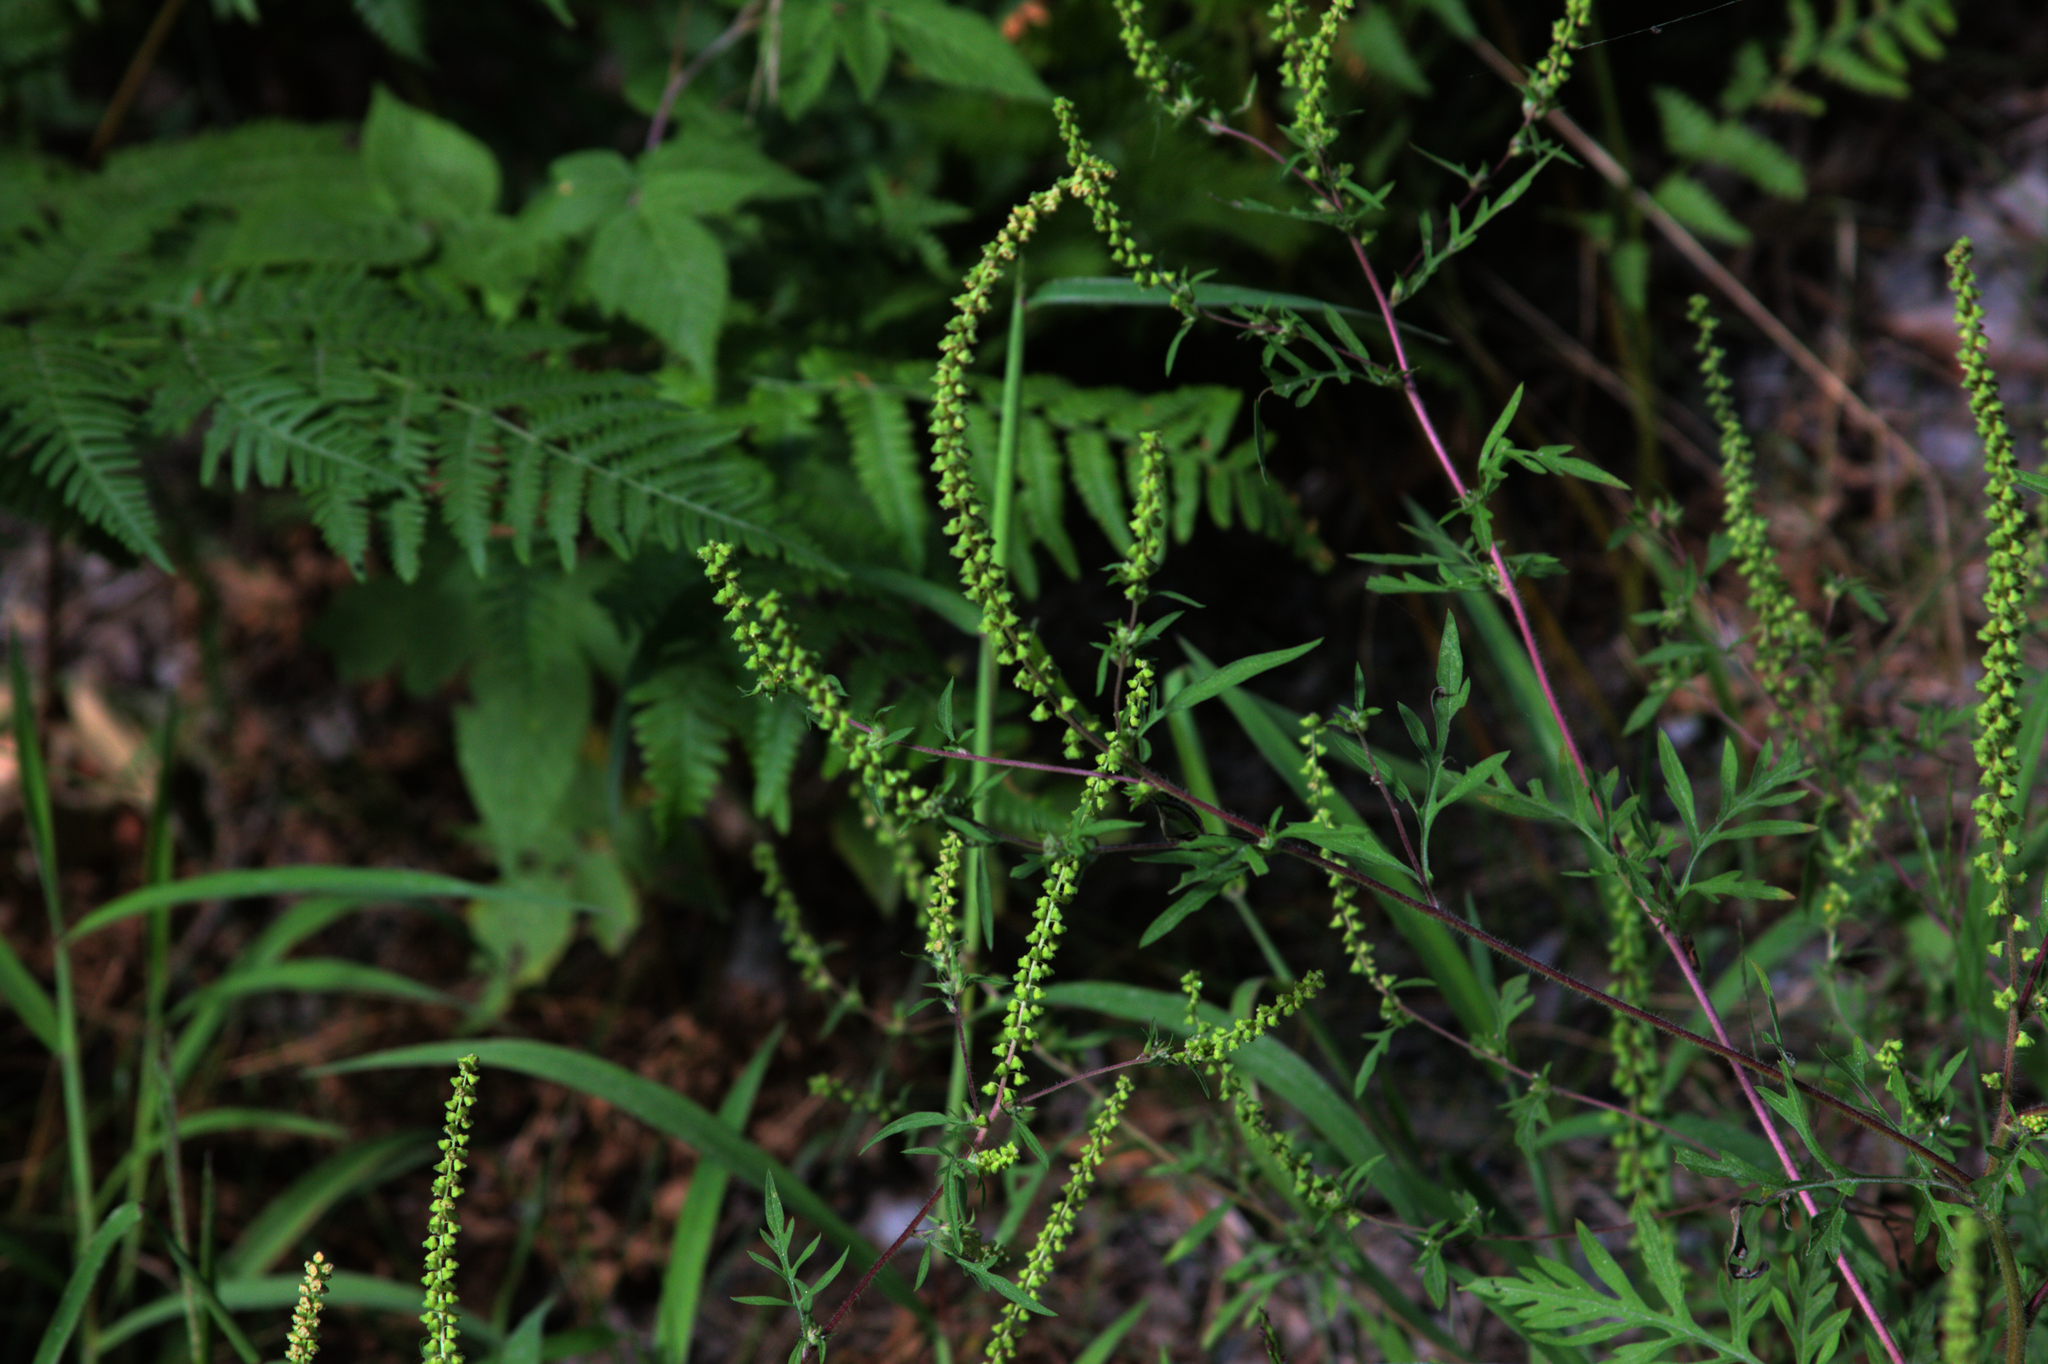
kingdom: Plantae
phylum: Tracheophyta
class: Magnoliopsida
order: Asterales
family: Asteraceae
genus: Ambrosia
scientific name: Ambrosia artemisiifolia
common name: Annual ragweed
